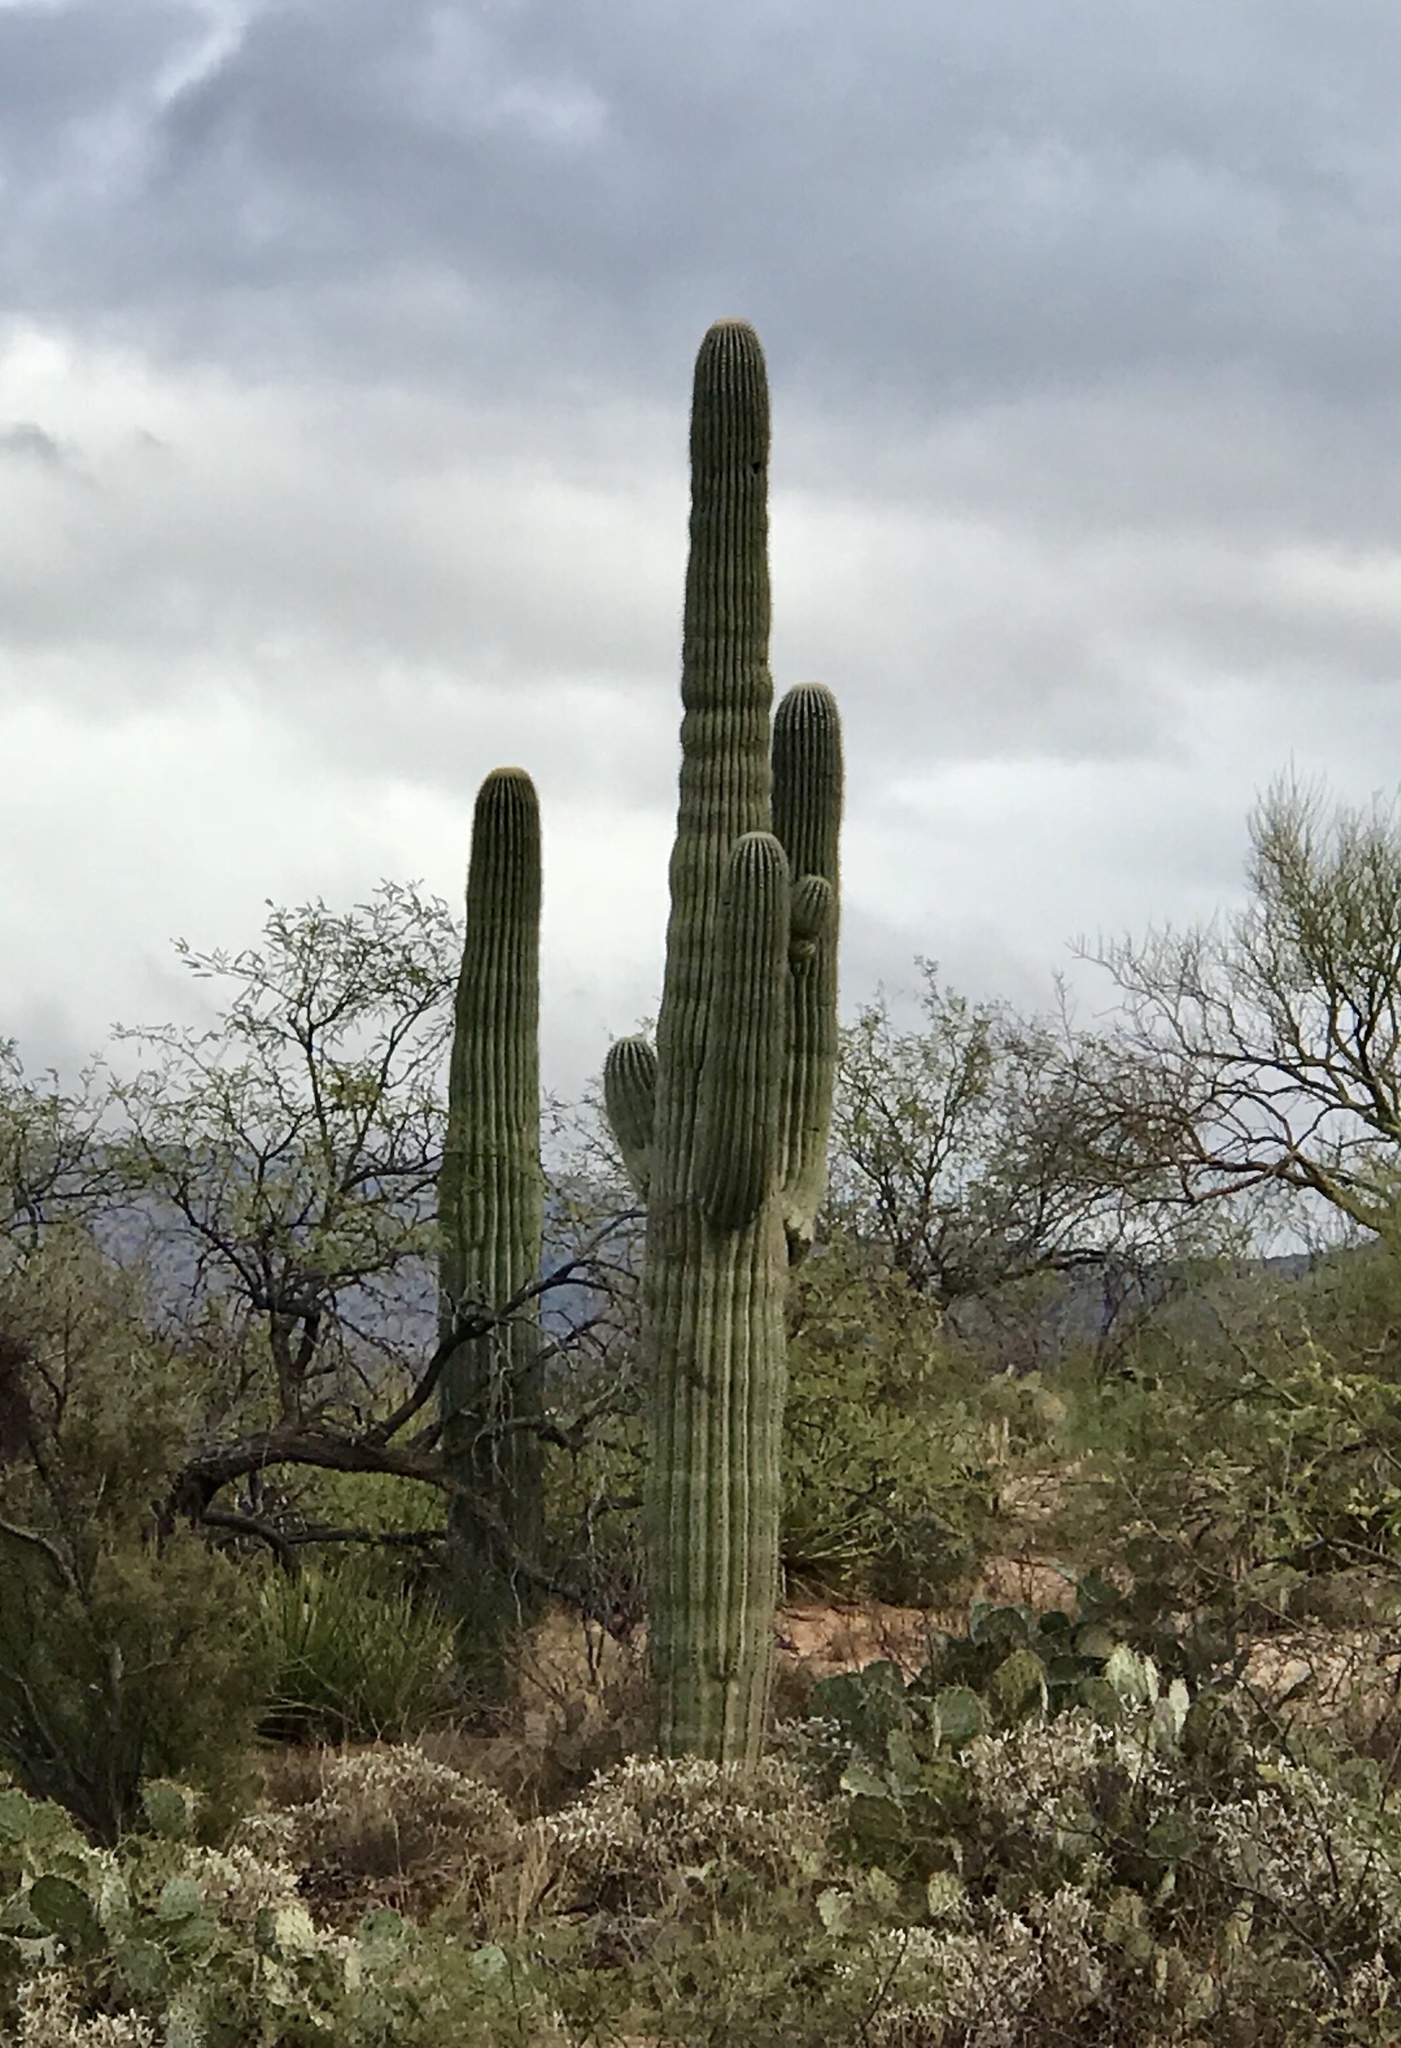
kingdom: Plantae
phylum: Tracheophyta
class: Magnoliopsida
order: Caryophyllales
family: Cactaceae
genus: Carnegiea
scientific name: Carnegiea gigantea
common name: Saguaro
